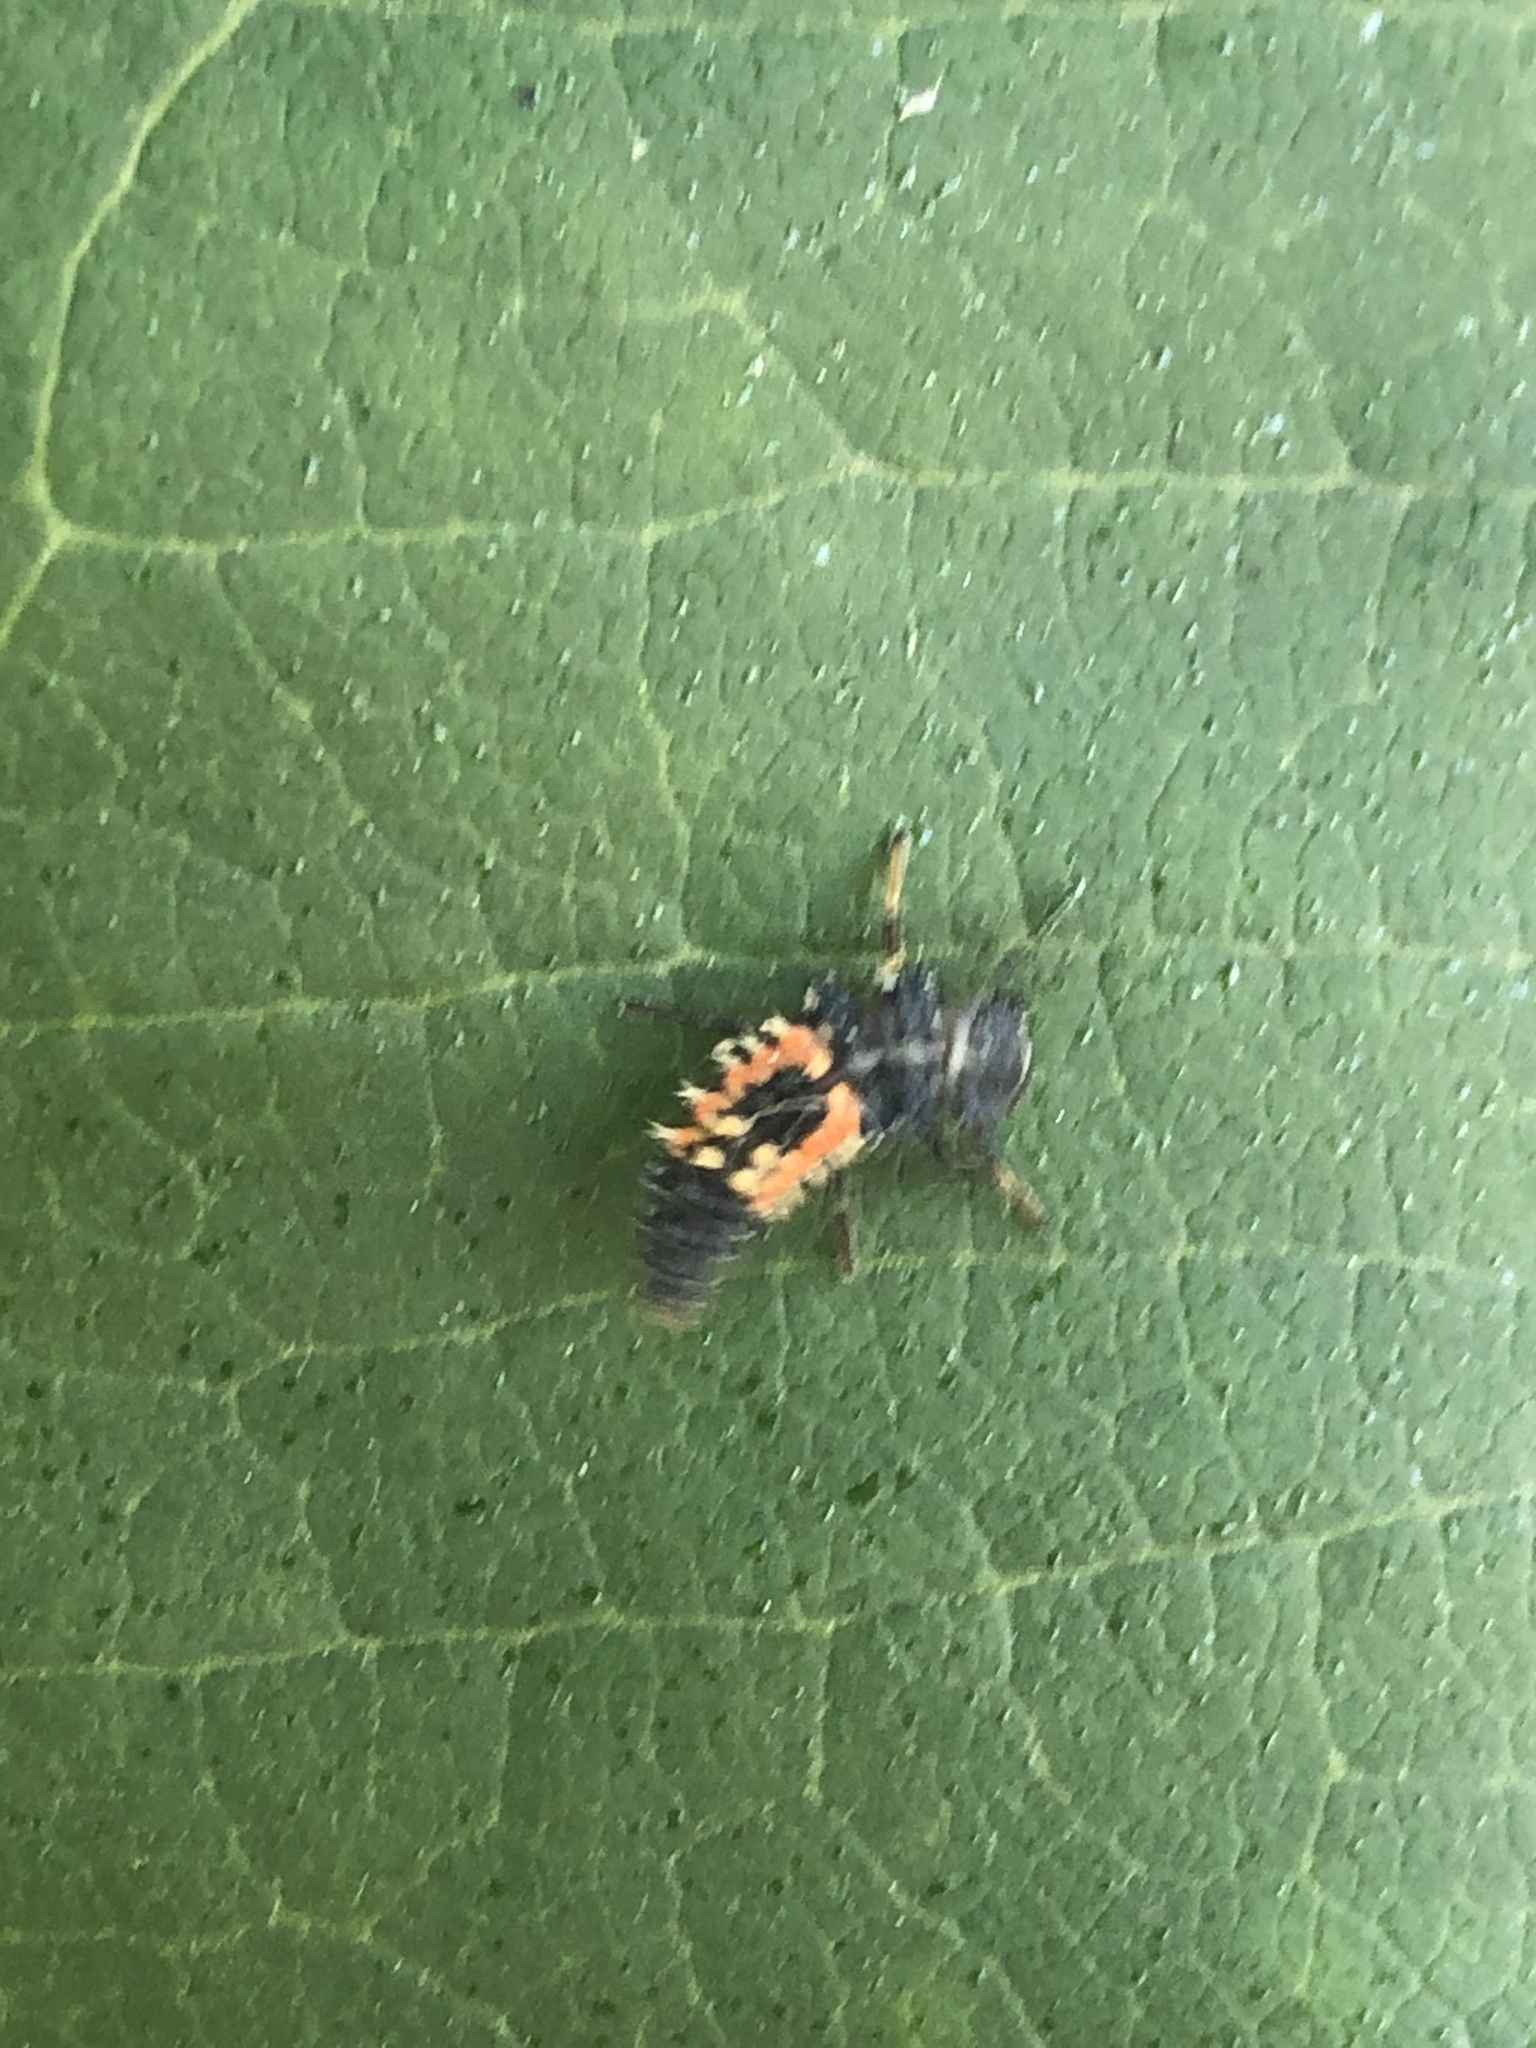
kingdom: Animalia
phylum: Arthropoda
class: Insecta
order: Coleoptera
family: Coccinellidae
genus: Harmonia
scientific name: Harmonia axyridis
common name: Harlequin ladybird
